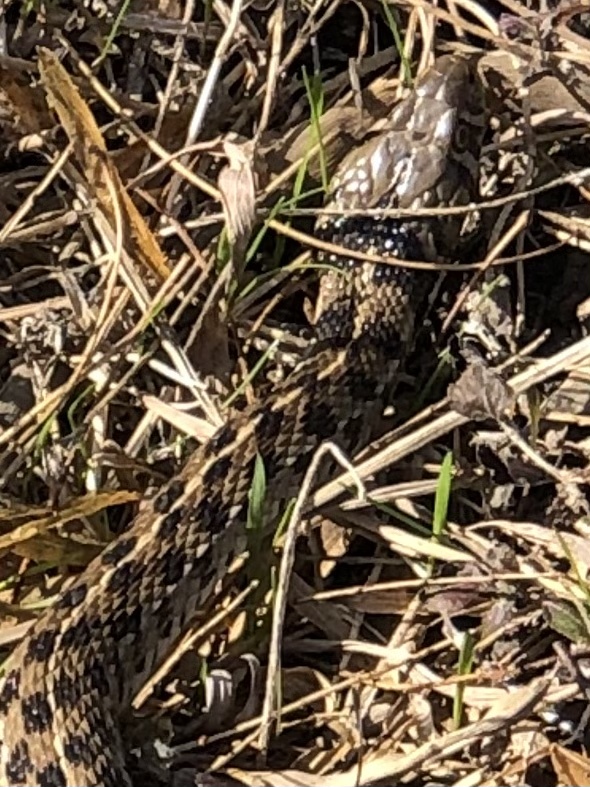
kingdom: Animalia
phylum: Chordata
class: Squamata
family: Colubridae
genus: Thamnophis
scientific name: Thamnophis marcianus
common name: Checkered garter snake
